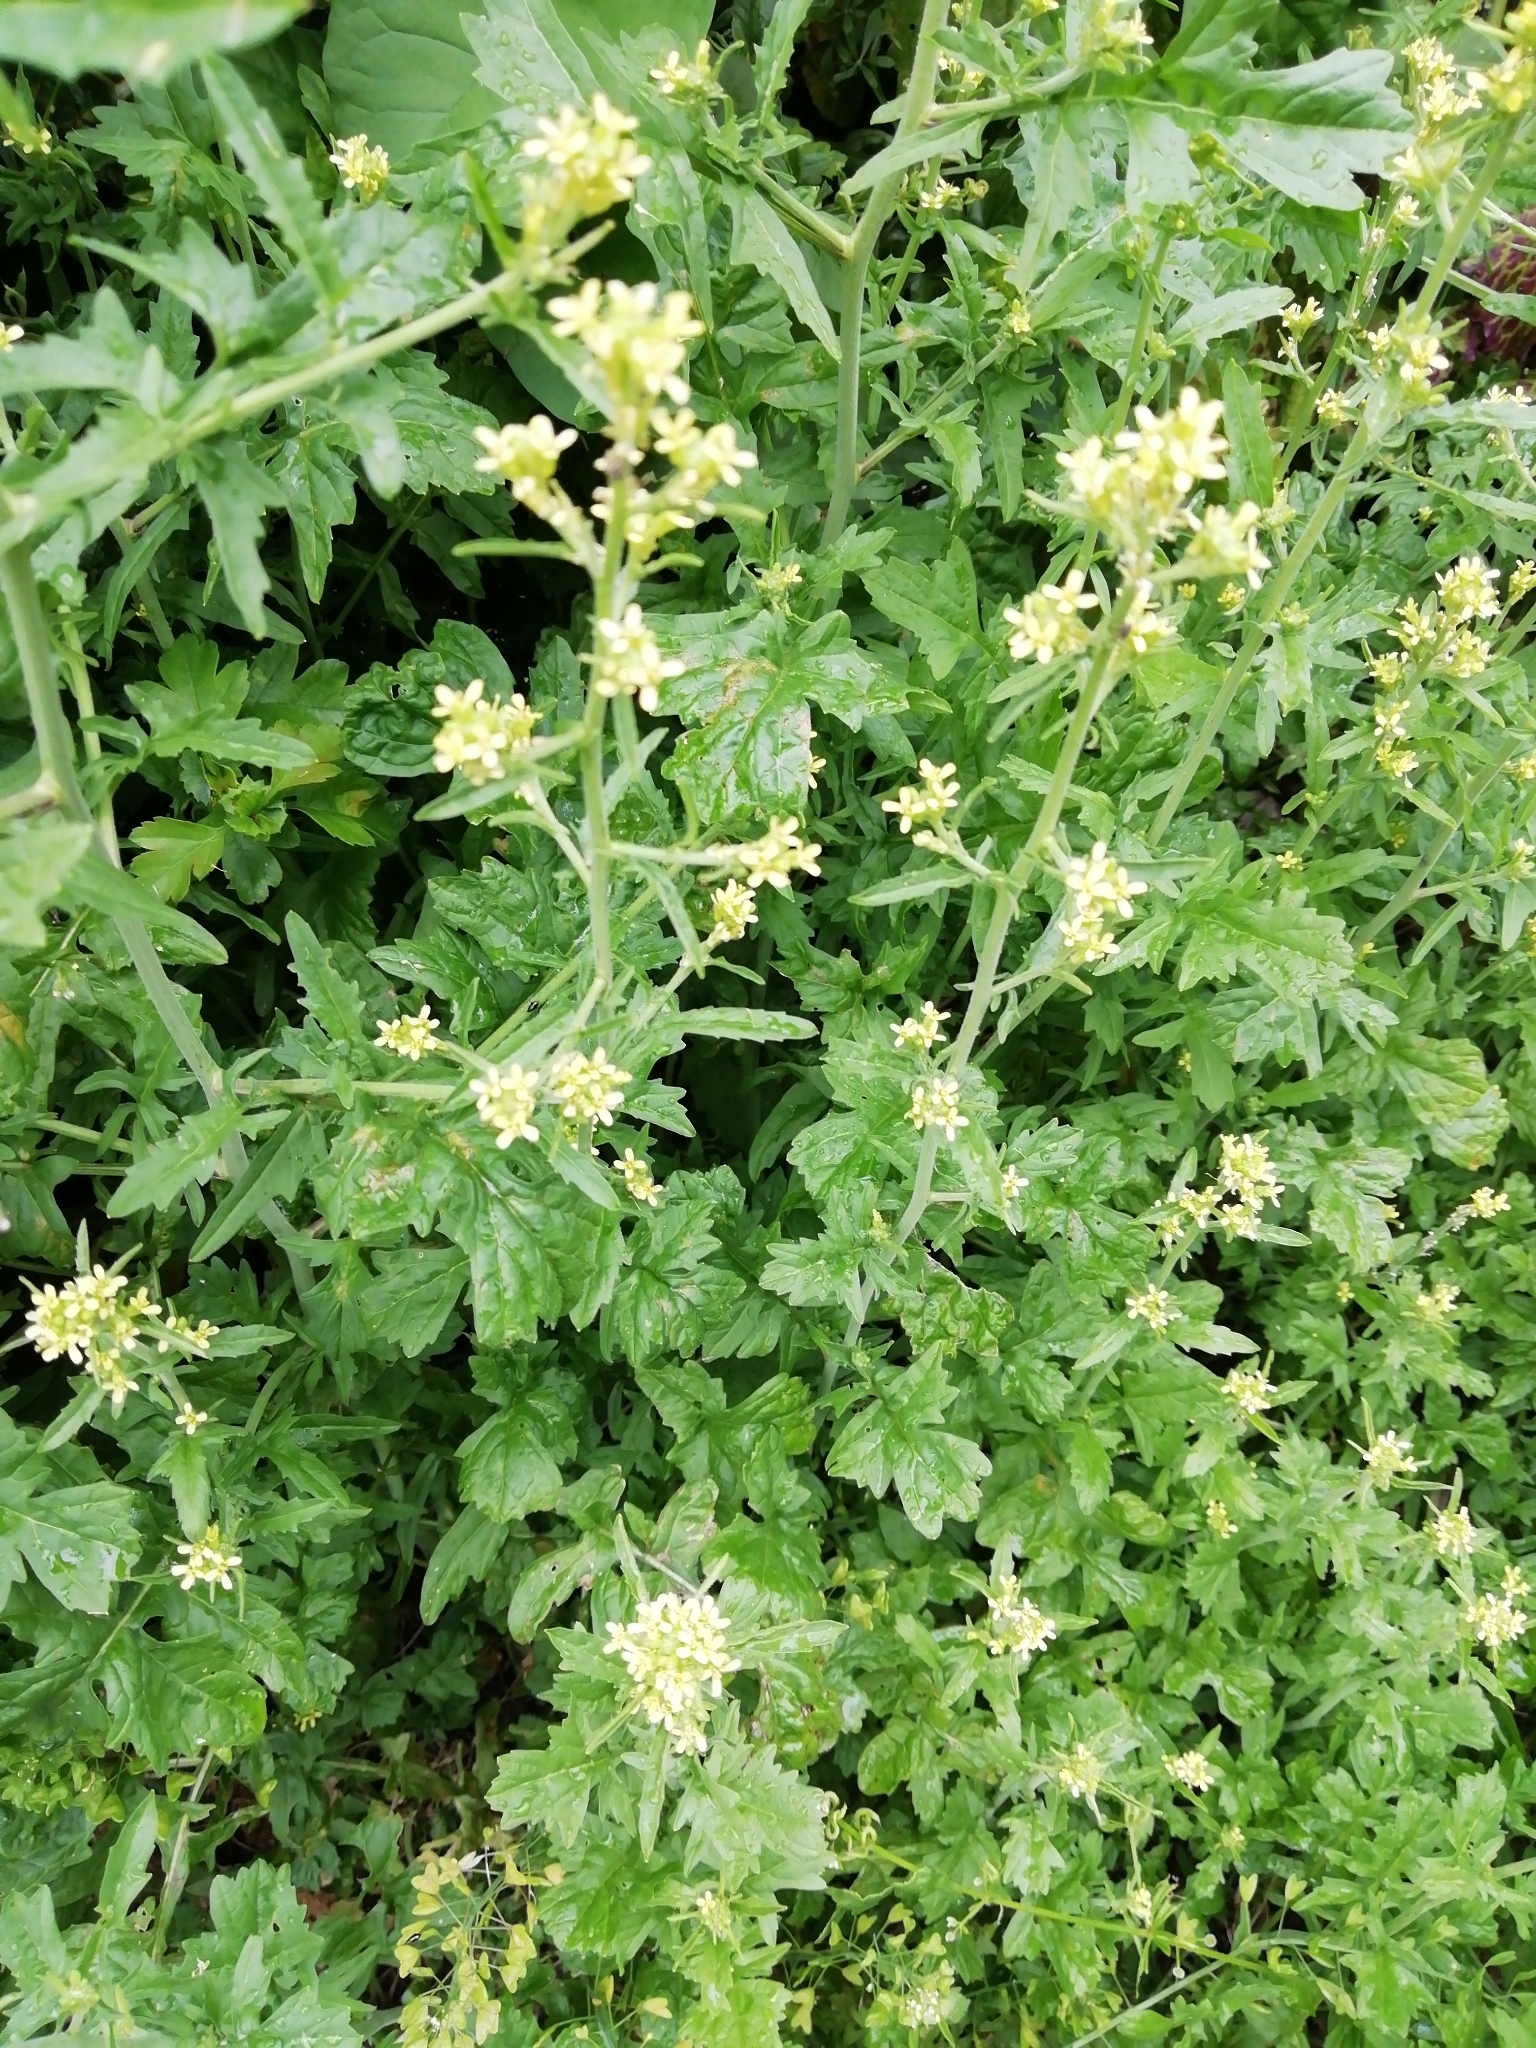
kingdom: Plantae
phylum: Tracheophyta
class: Magnoliopsida
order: Brassicales
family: Brassicaceae
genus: Sisymbrium
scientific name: Sisymbrium officinale
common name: Hedge mustard
